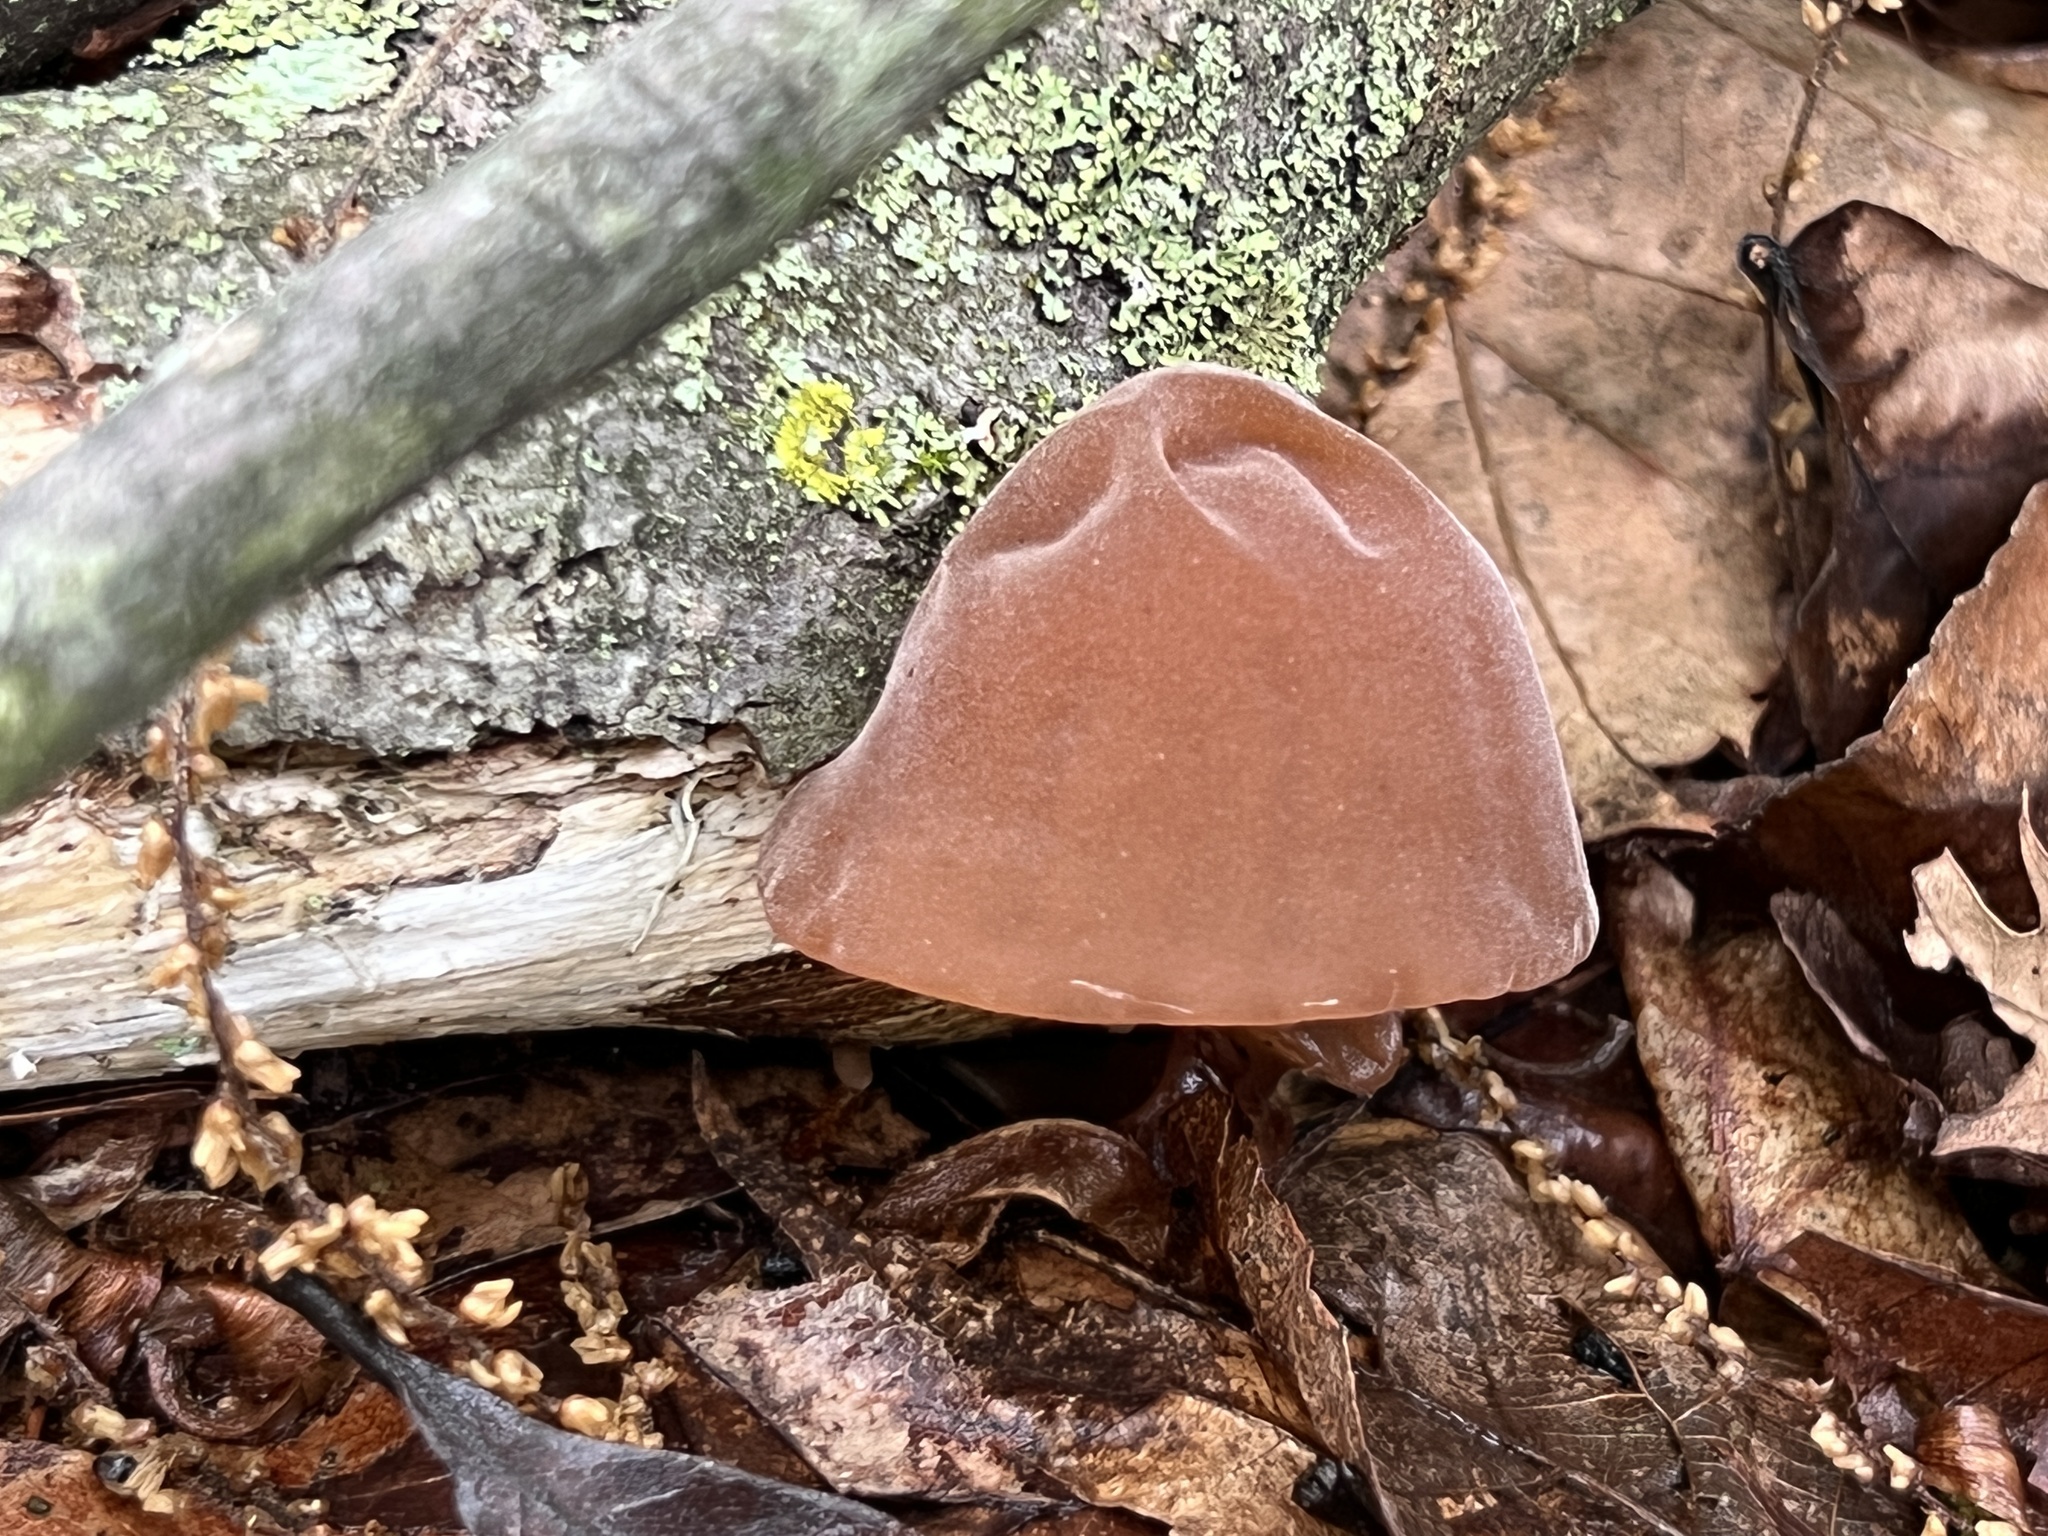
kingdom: Fungi
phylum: Basidiomycota
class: Agaricomycetes
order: Auriculariales
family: Auriculariaceae
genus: Auricularia
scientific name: Auricularia angiospermarum
